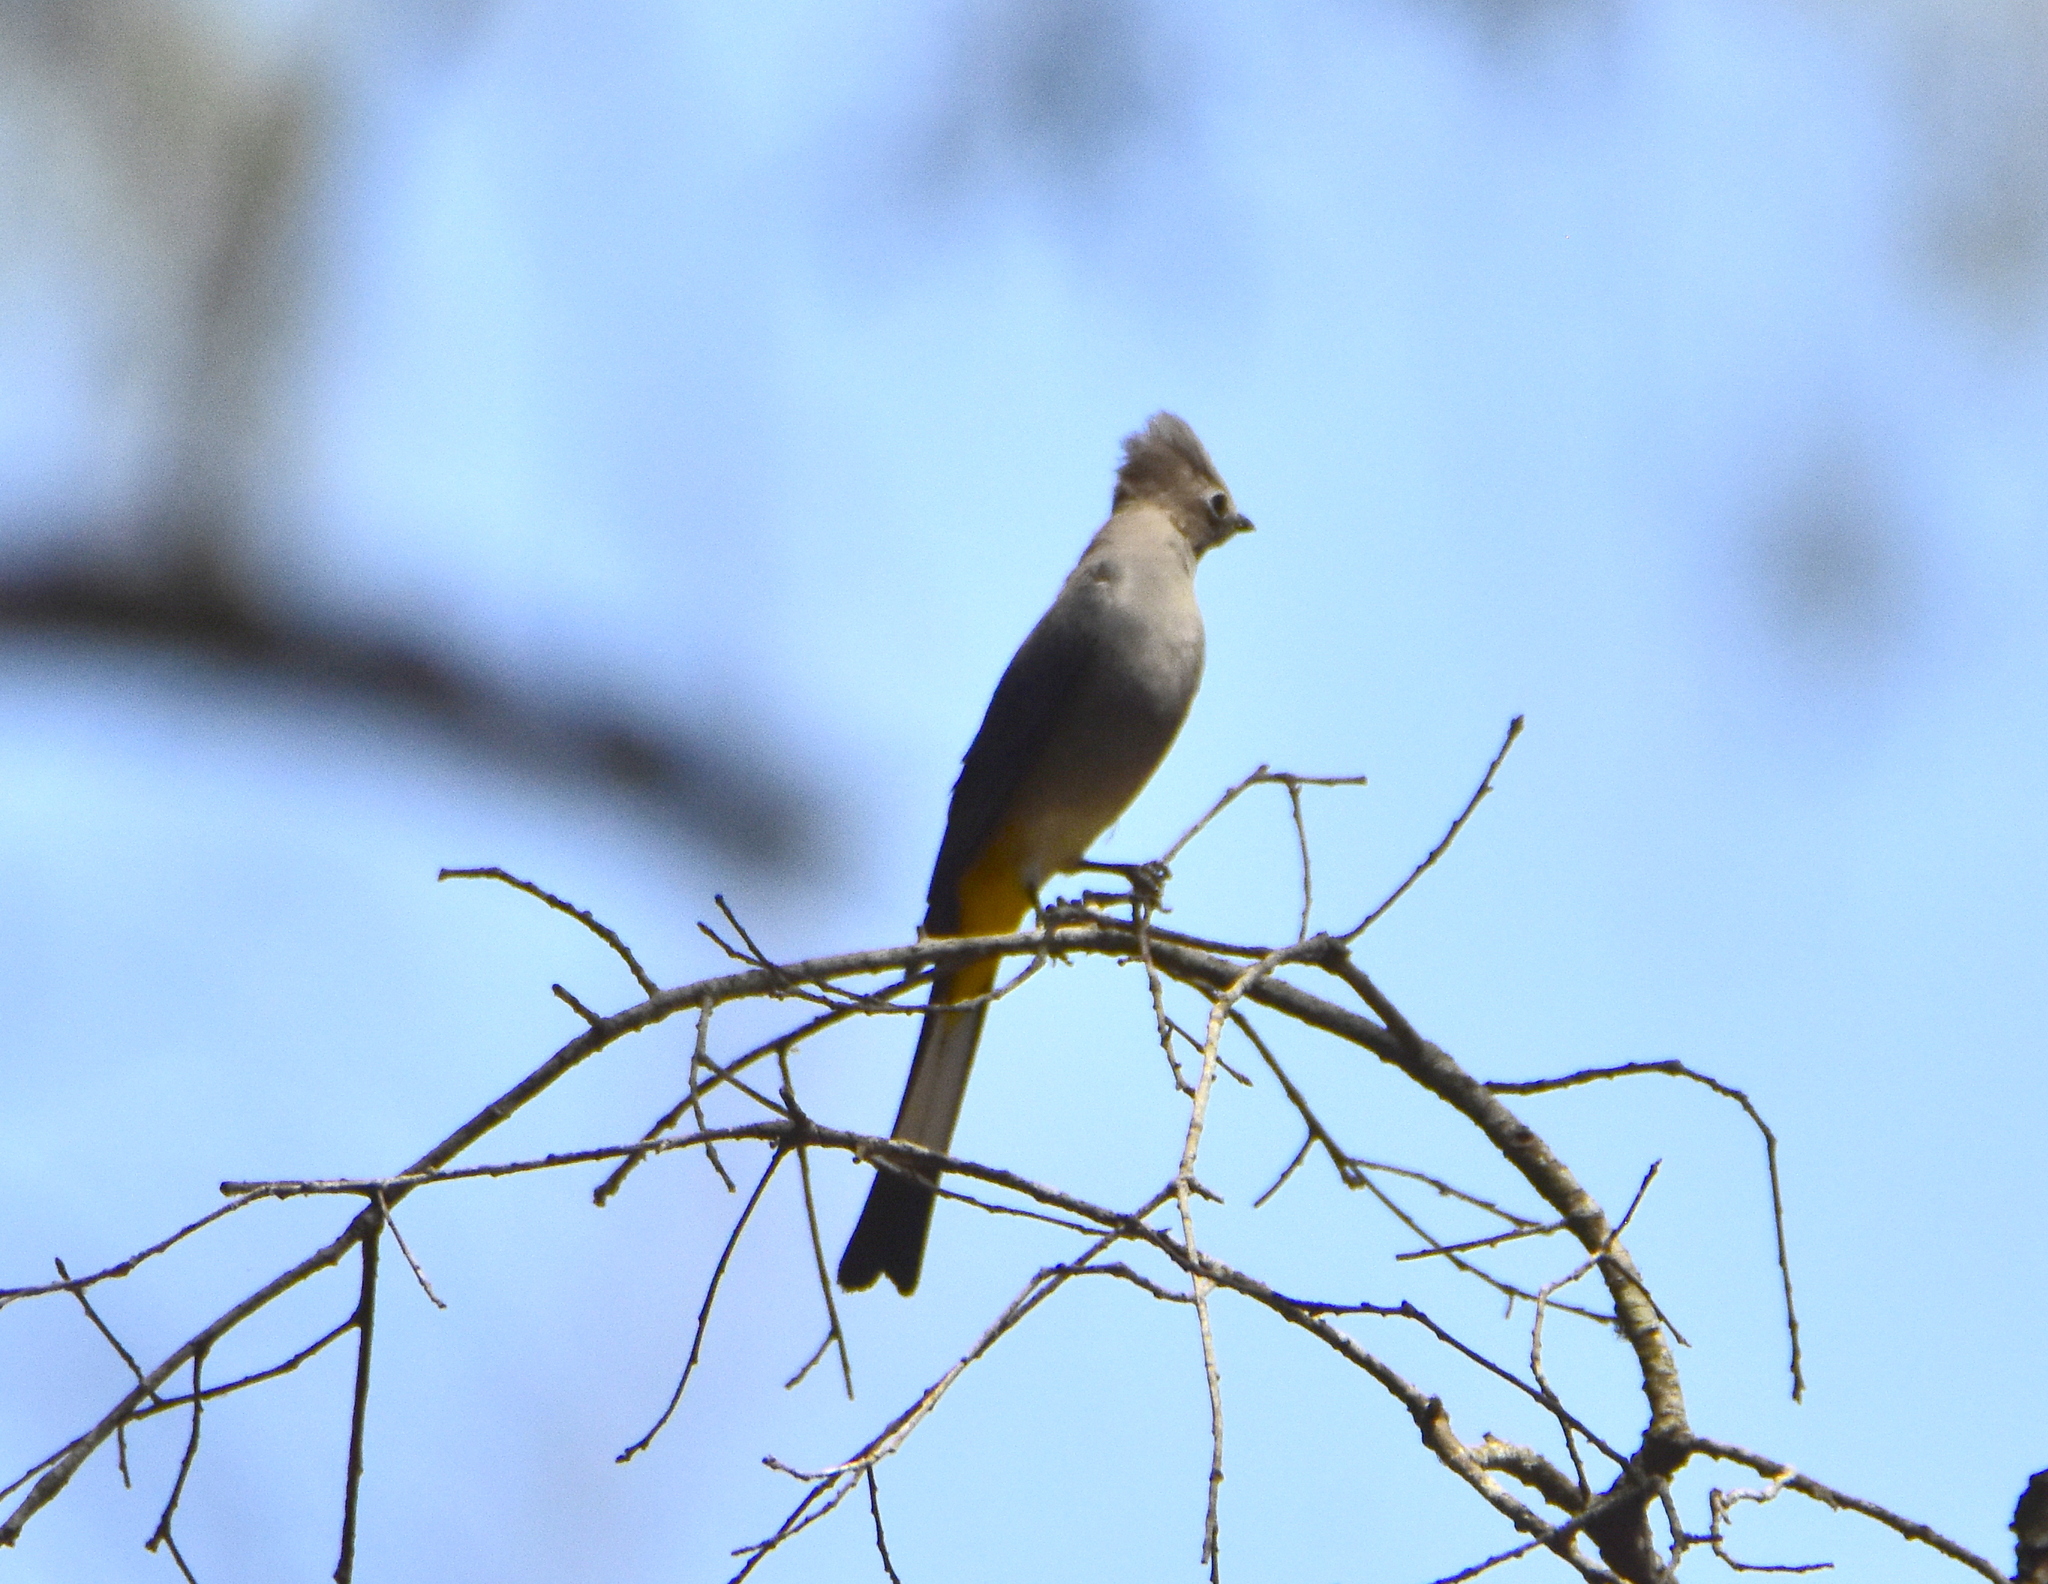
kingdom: Animalia
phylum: Chordata
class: Aves
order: Passeriformes
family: Ptilogonatidae
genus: Ptilogonys
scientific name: Ptilogonys cinereus
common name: Gray silky-flycatcher
